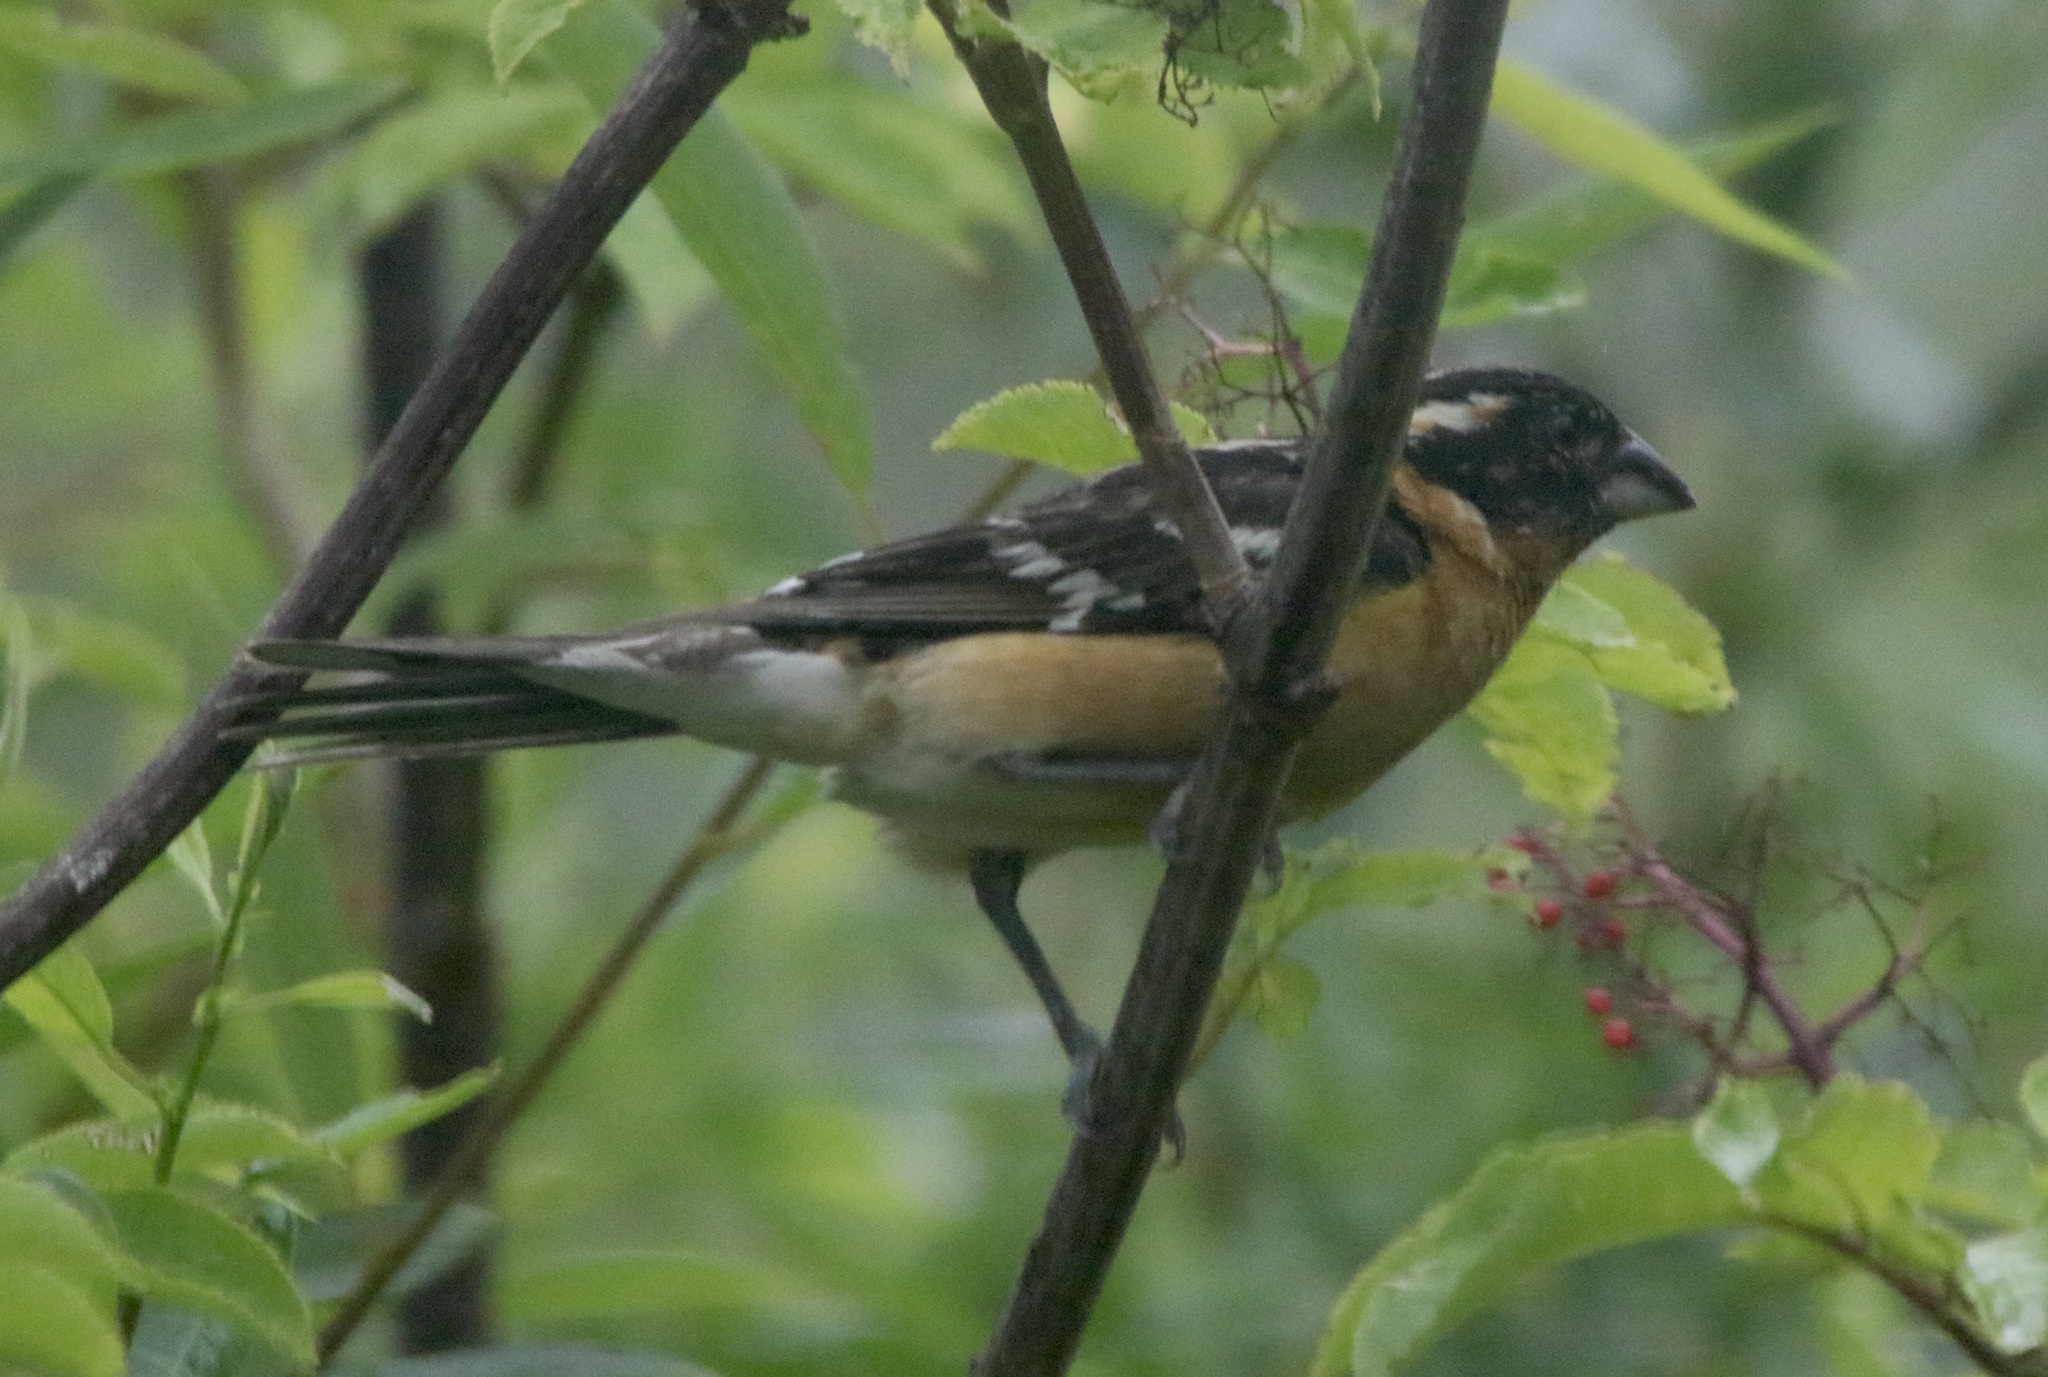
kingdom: Animalia
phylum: Chordata
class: Aves
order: Passeriformes
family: Cardinalidae
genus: Pheucticus
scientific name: Pheucticus melanocephalus
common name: Black-headed grosbeak
